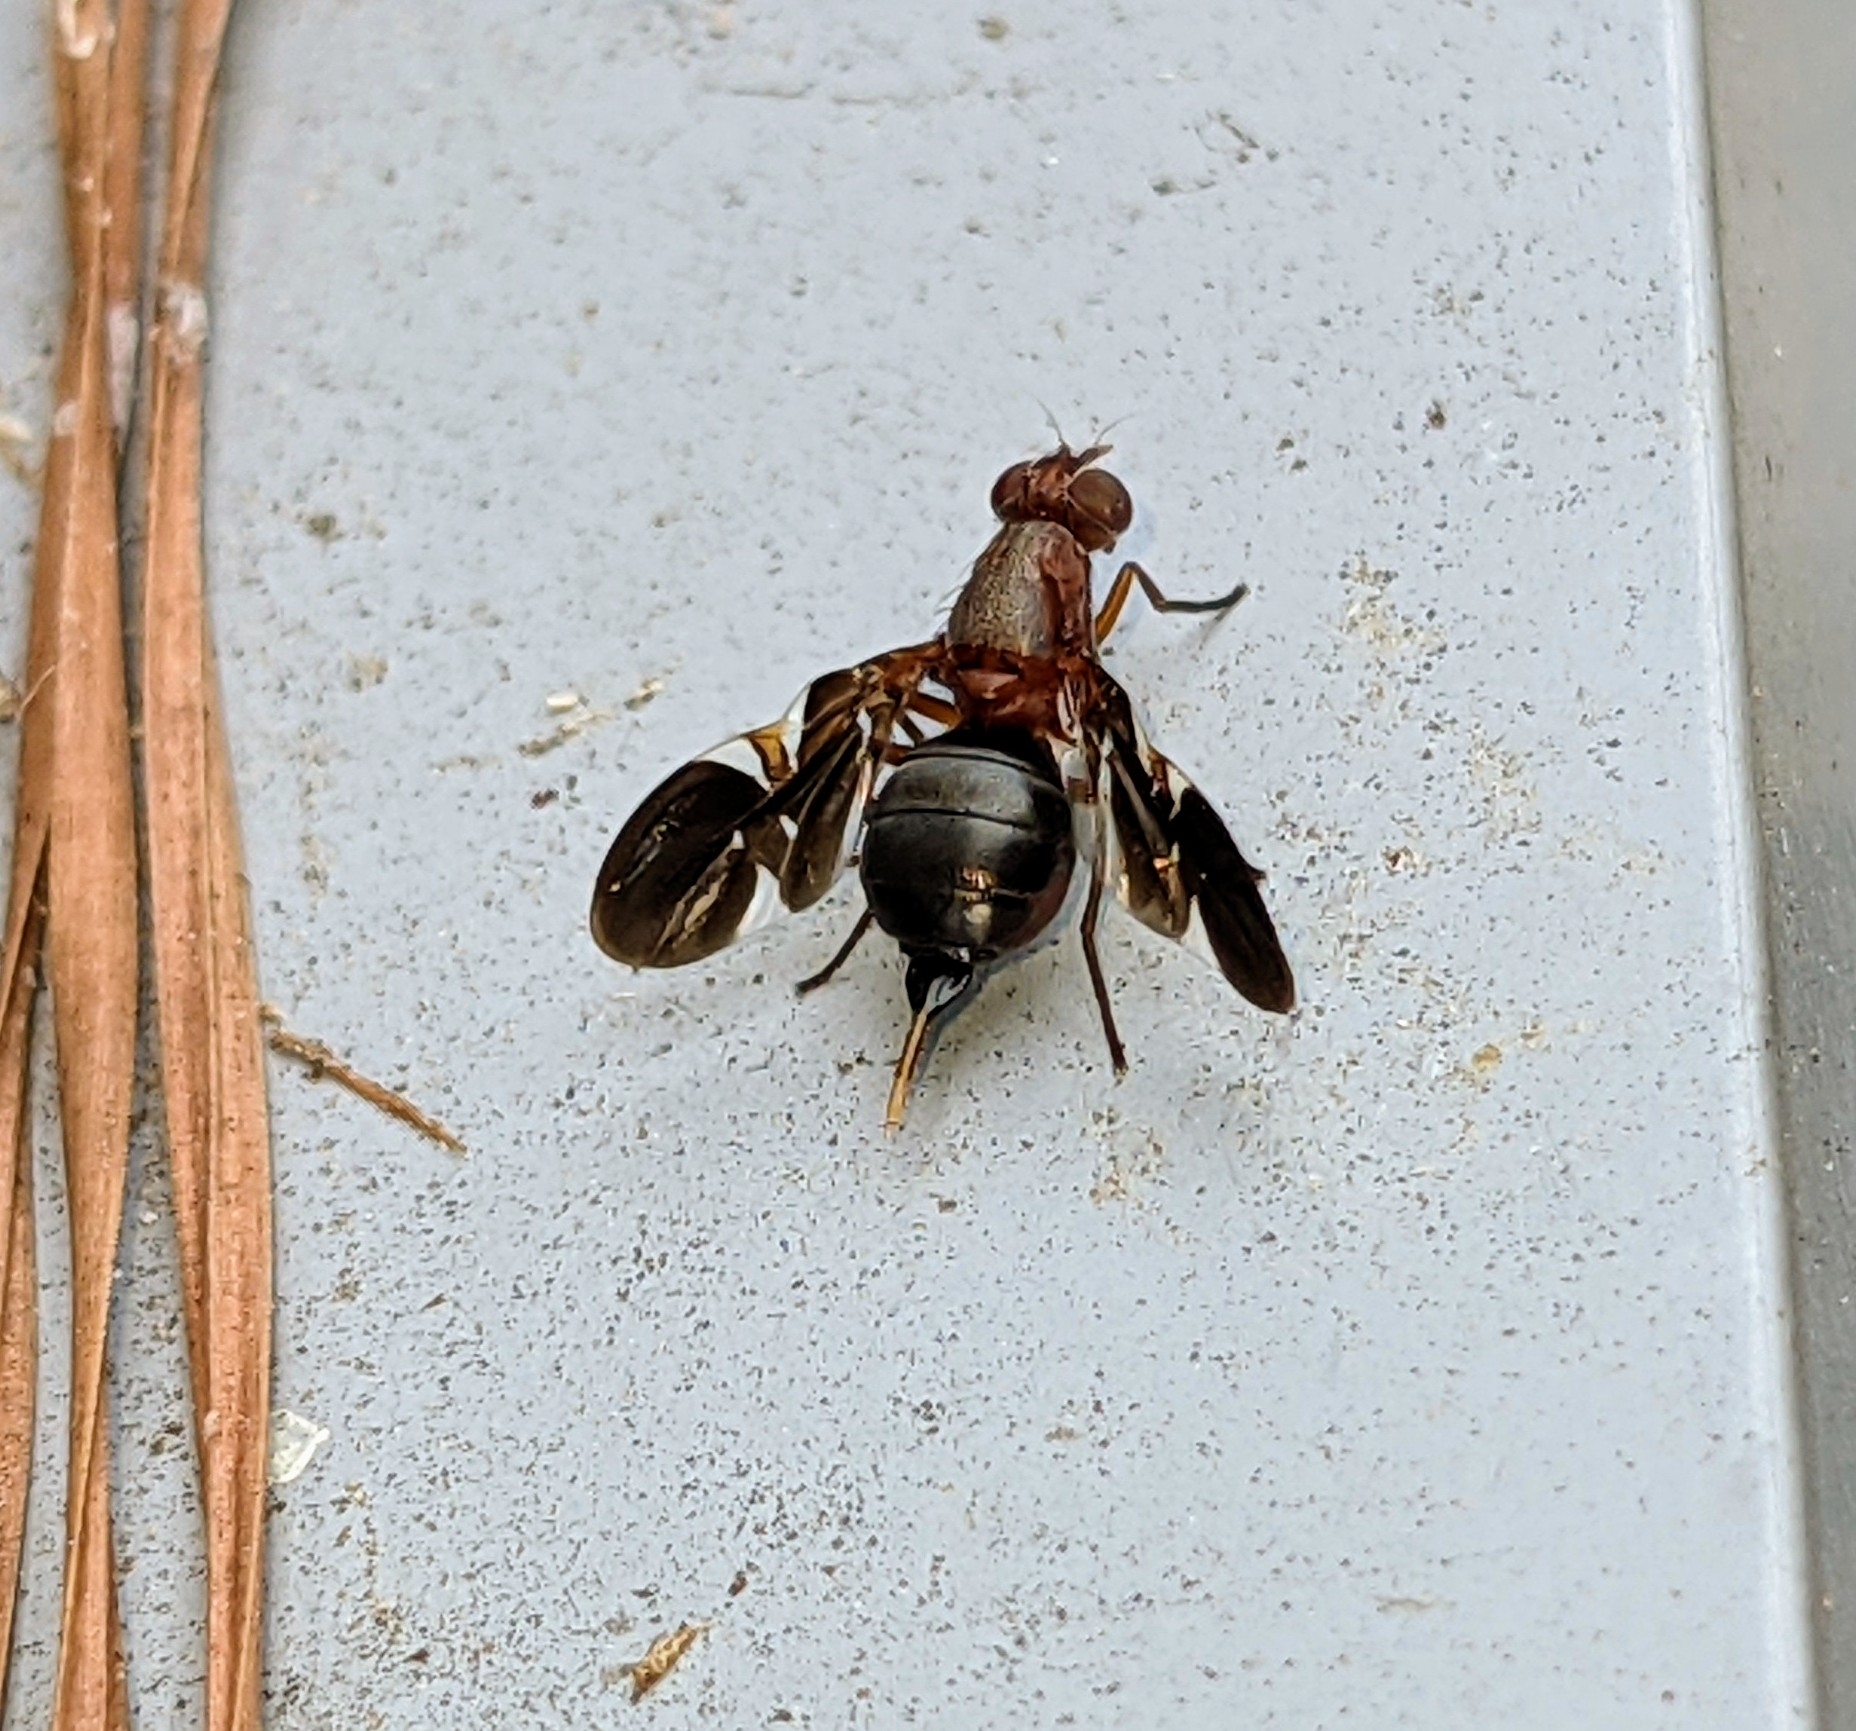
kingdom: Animalia
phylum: Arthropoda
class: Insecta
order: Diptera
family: Ulidiidae
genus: Delphinia
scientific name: Delphinia picta
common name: Common picture-winged fly
